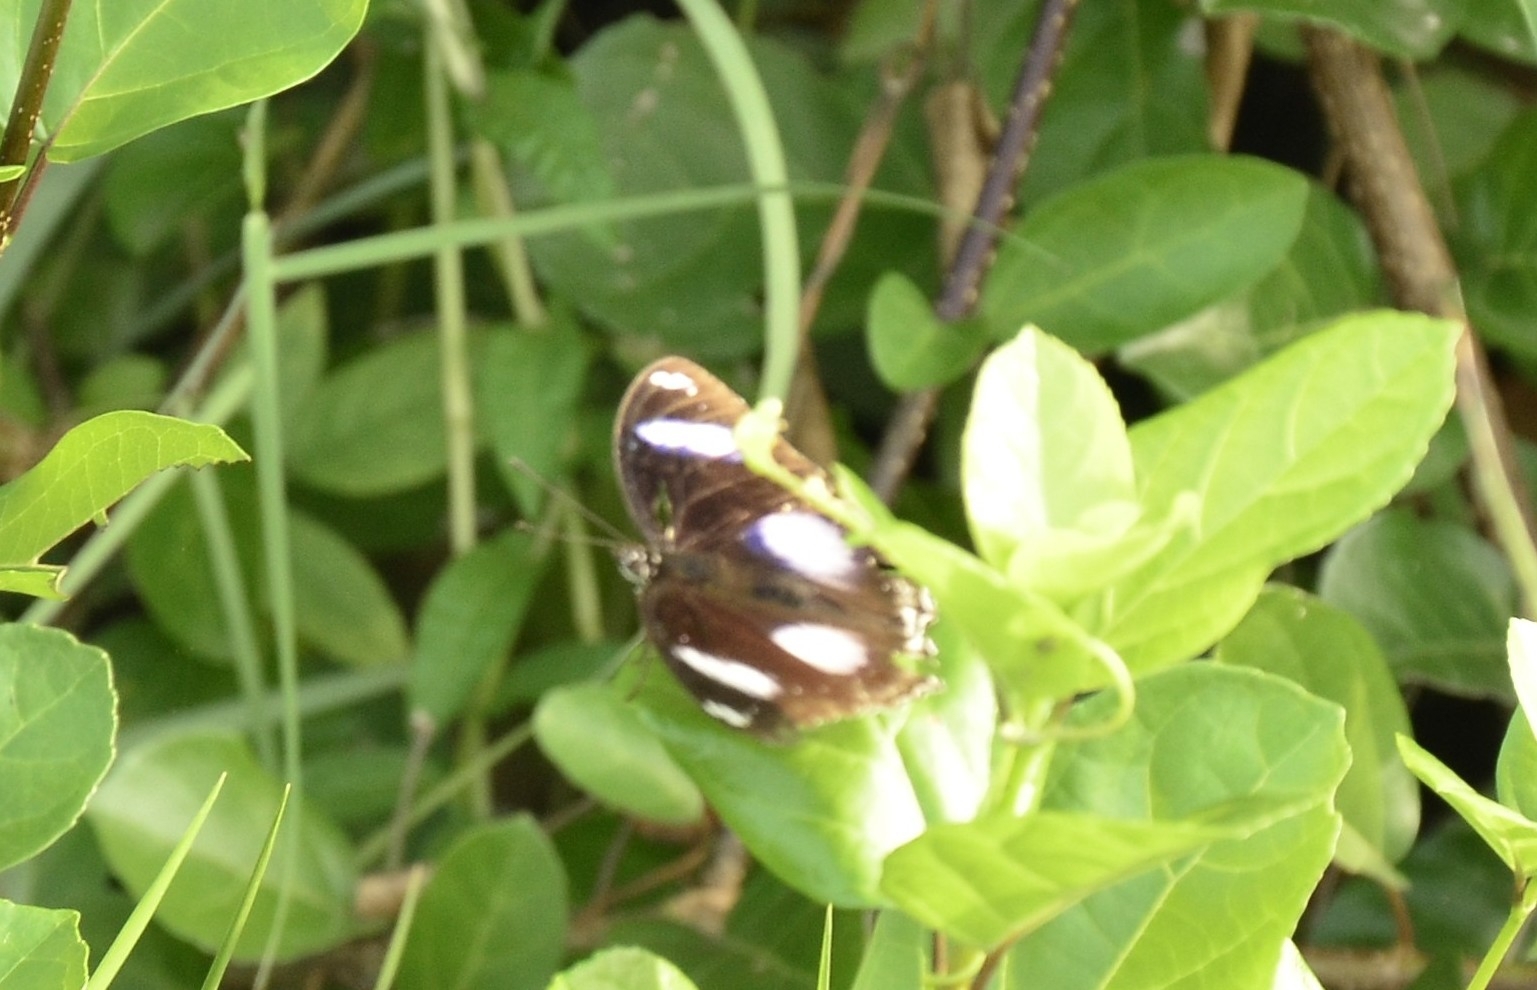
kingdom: Animalia
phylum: Arthropoda
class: Insecta
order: Lepidoptera
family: Nymphalidae
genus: Hypolimnas
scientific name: Hypolimnas bolina
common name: Great eggfly
